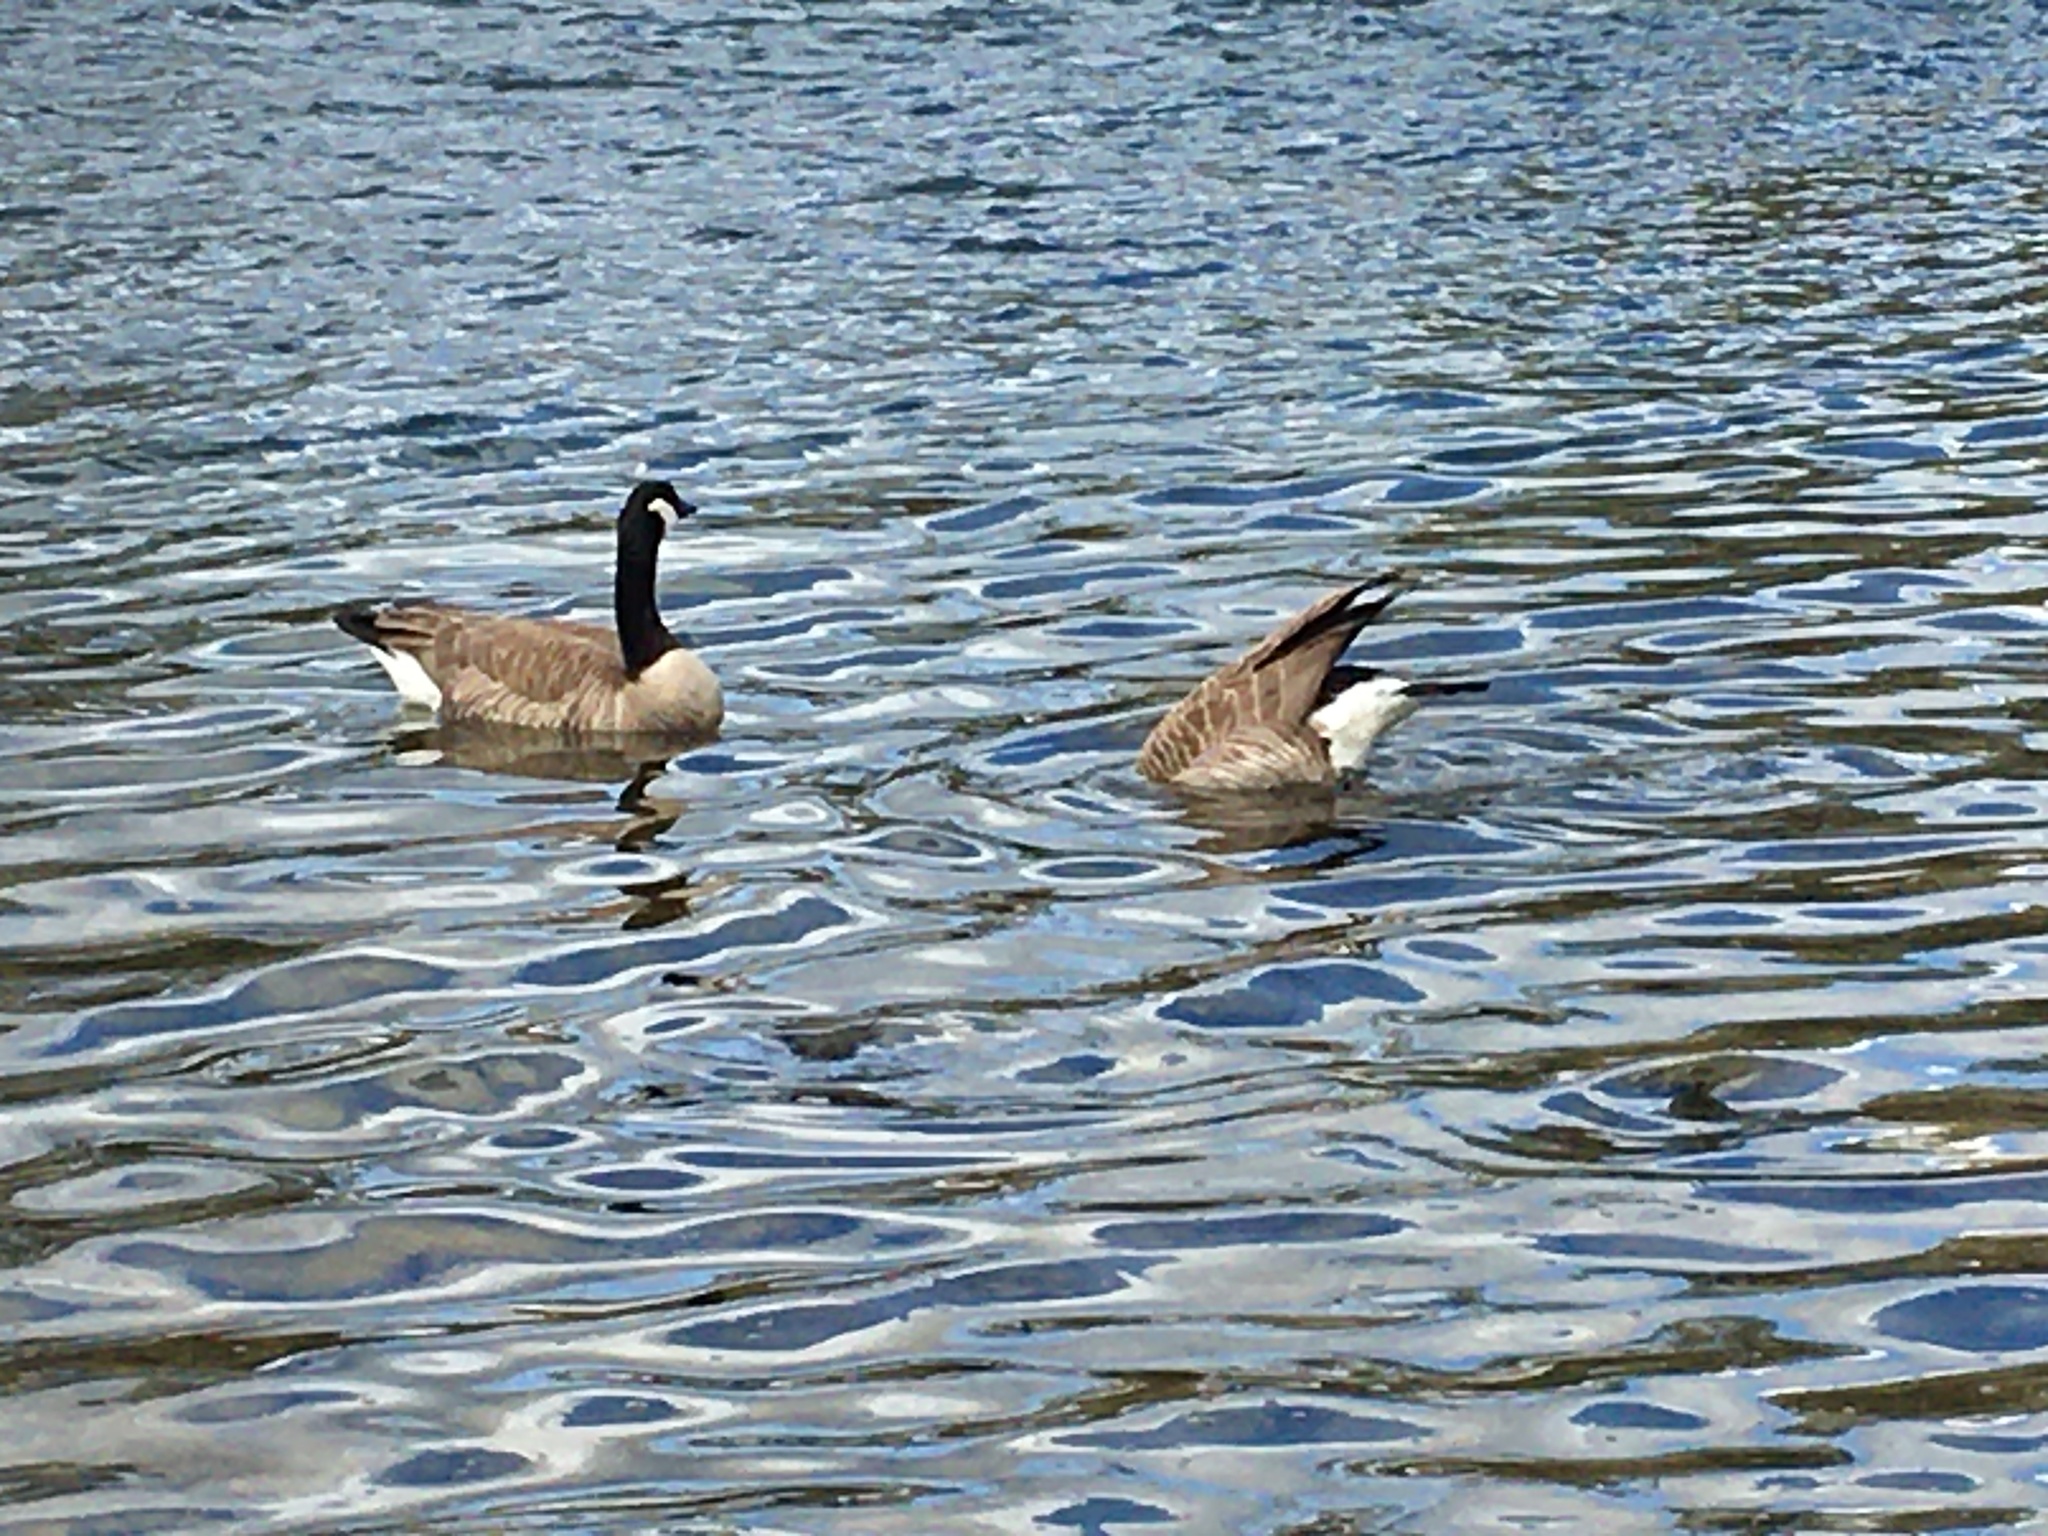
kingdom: Animalia
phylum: Chordata
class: Aves
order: Anseriformes
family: Anatidae
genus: Branta
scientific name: Branta canadensis
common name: Canada goose
